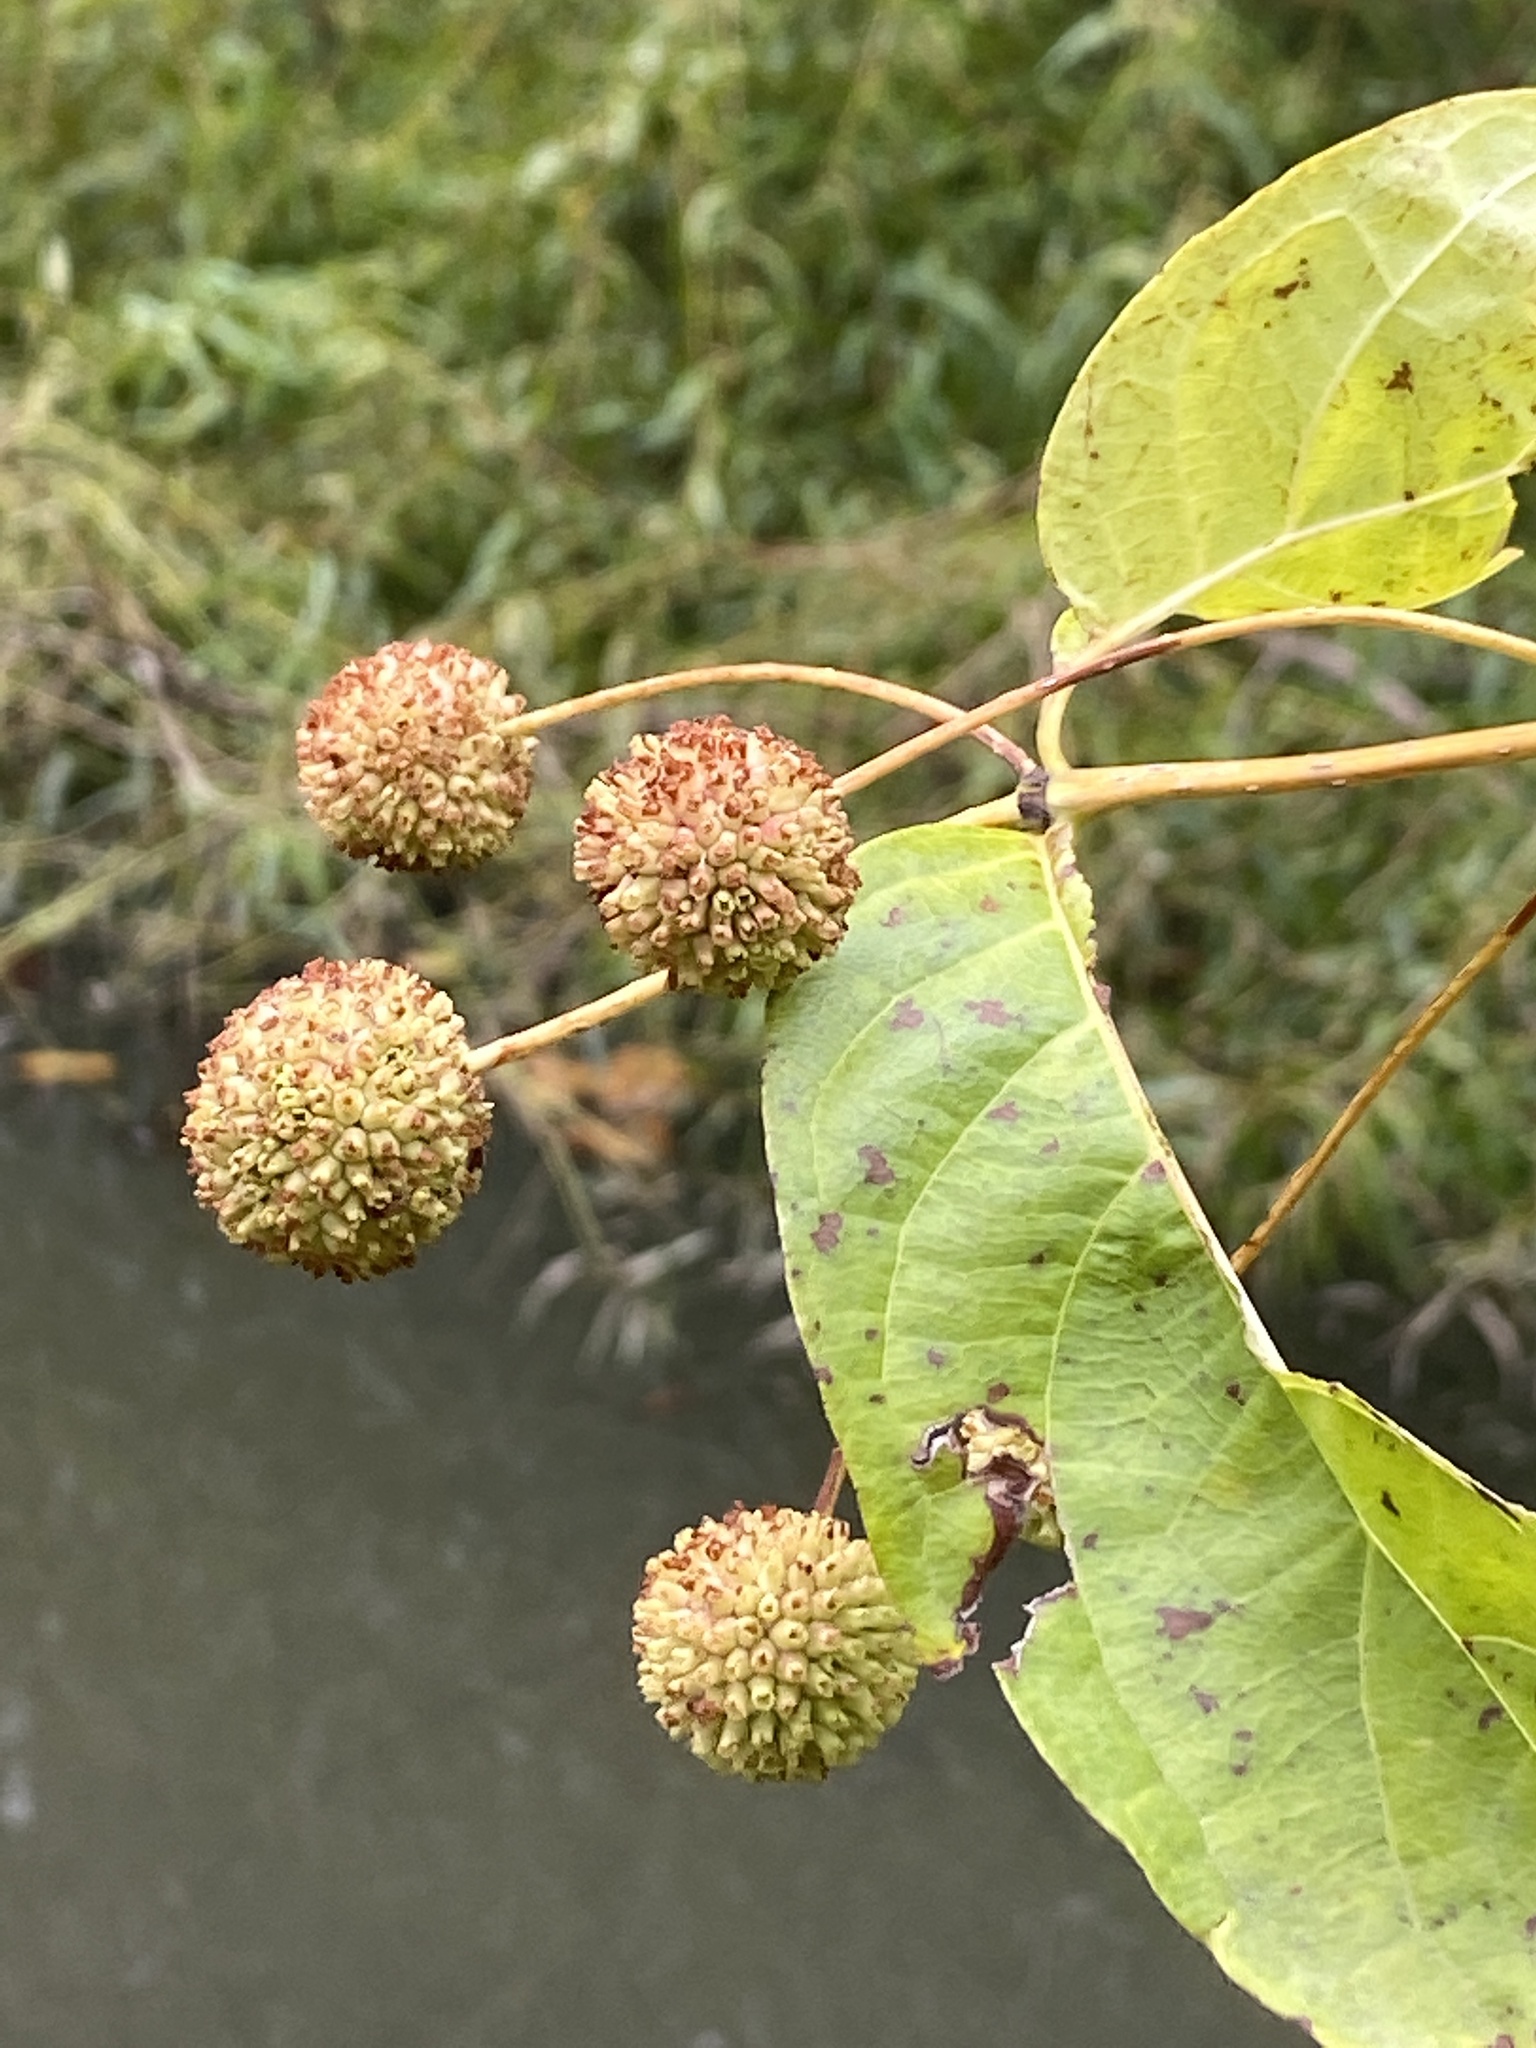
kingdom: Plantae
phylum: Tracheophyta
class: Magnoliopsida
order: Gentianales
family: Rubiaceae
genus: Cephalanthus
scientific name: Cephalanthus occidentalis
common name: Button-willow
